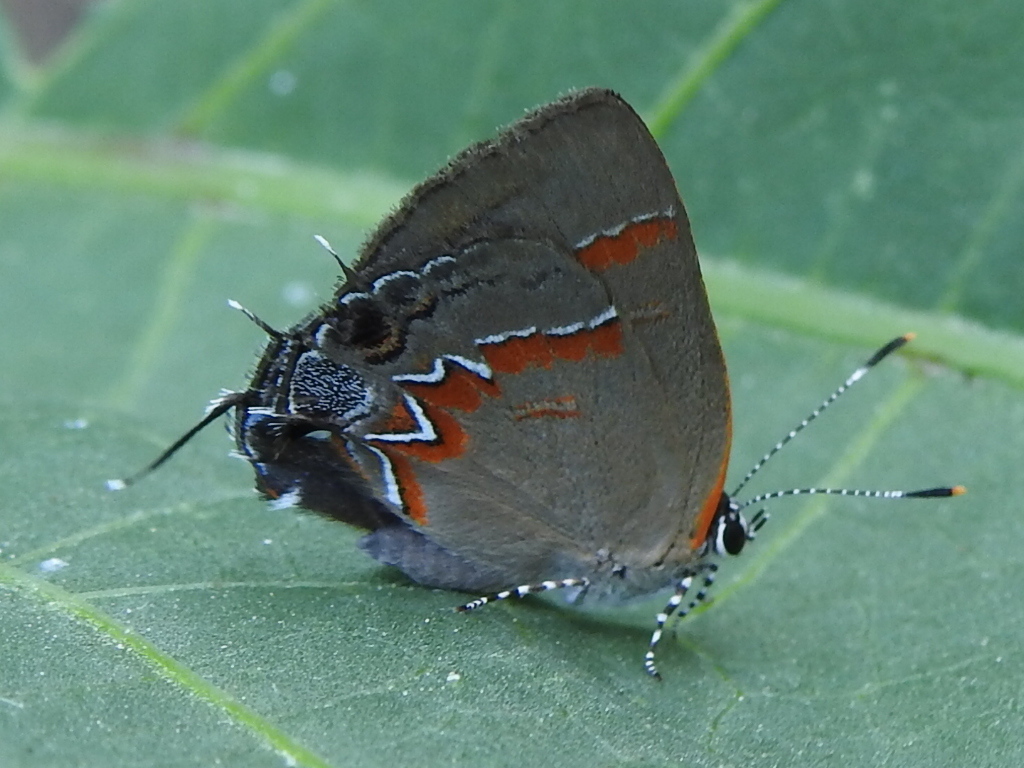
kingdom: Animalia
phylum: Arthropoda
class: Insecta
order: Lepidoptera
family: Lycaenidae
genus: Calycopis
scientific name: Calycopis cecrops
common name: Red-banded hairstreak
